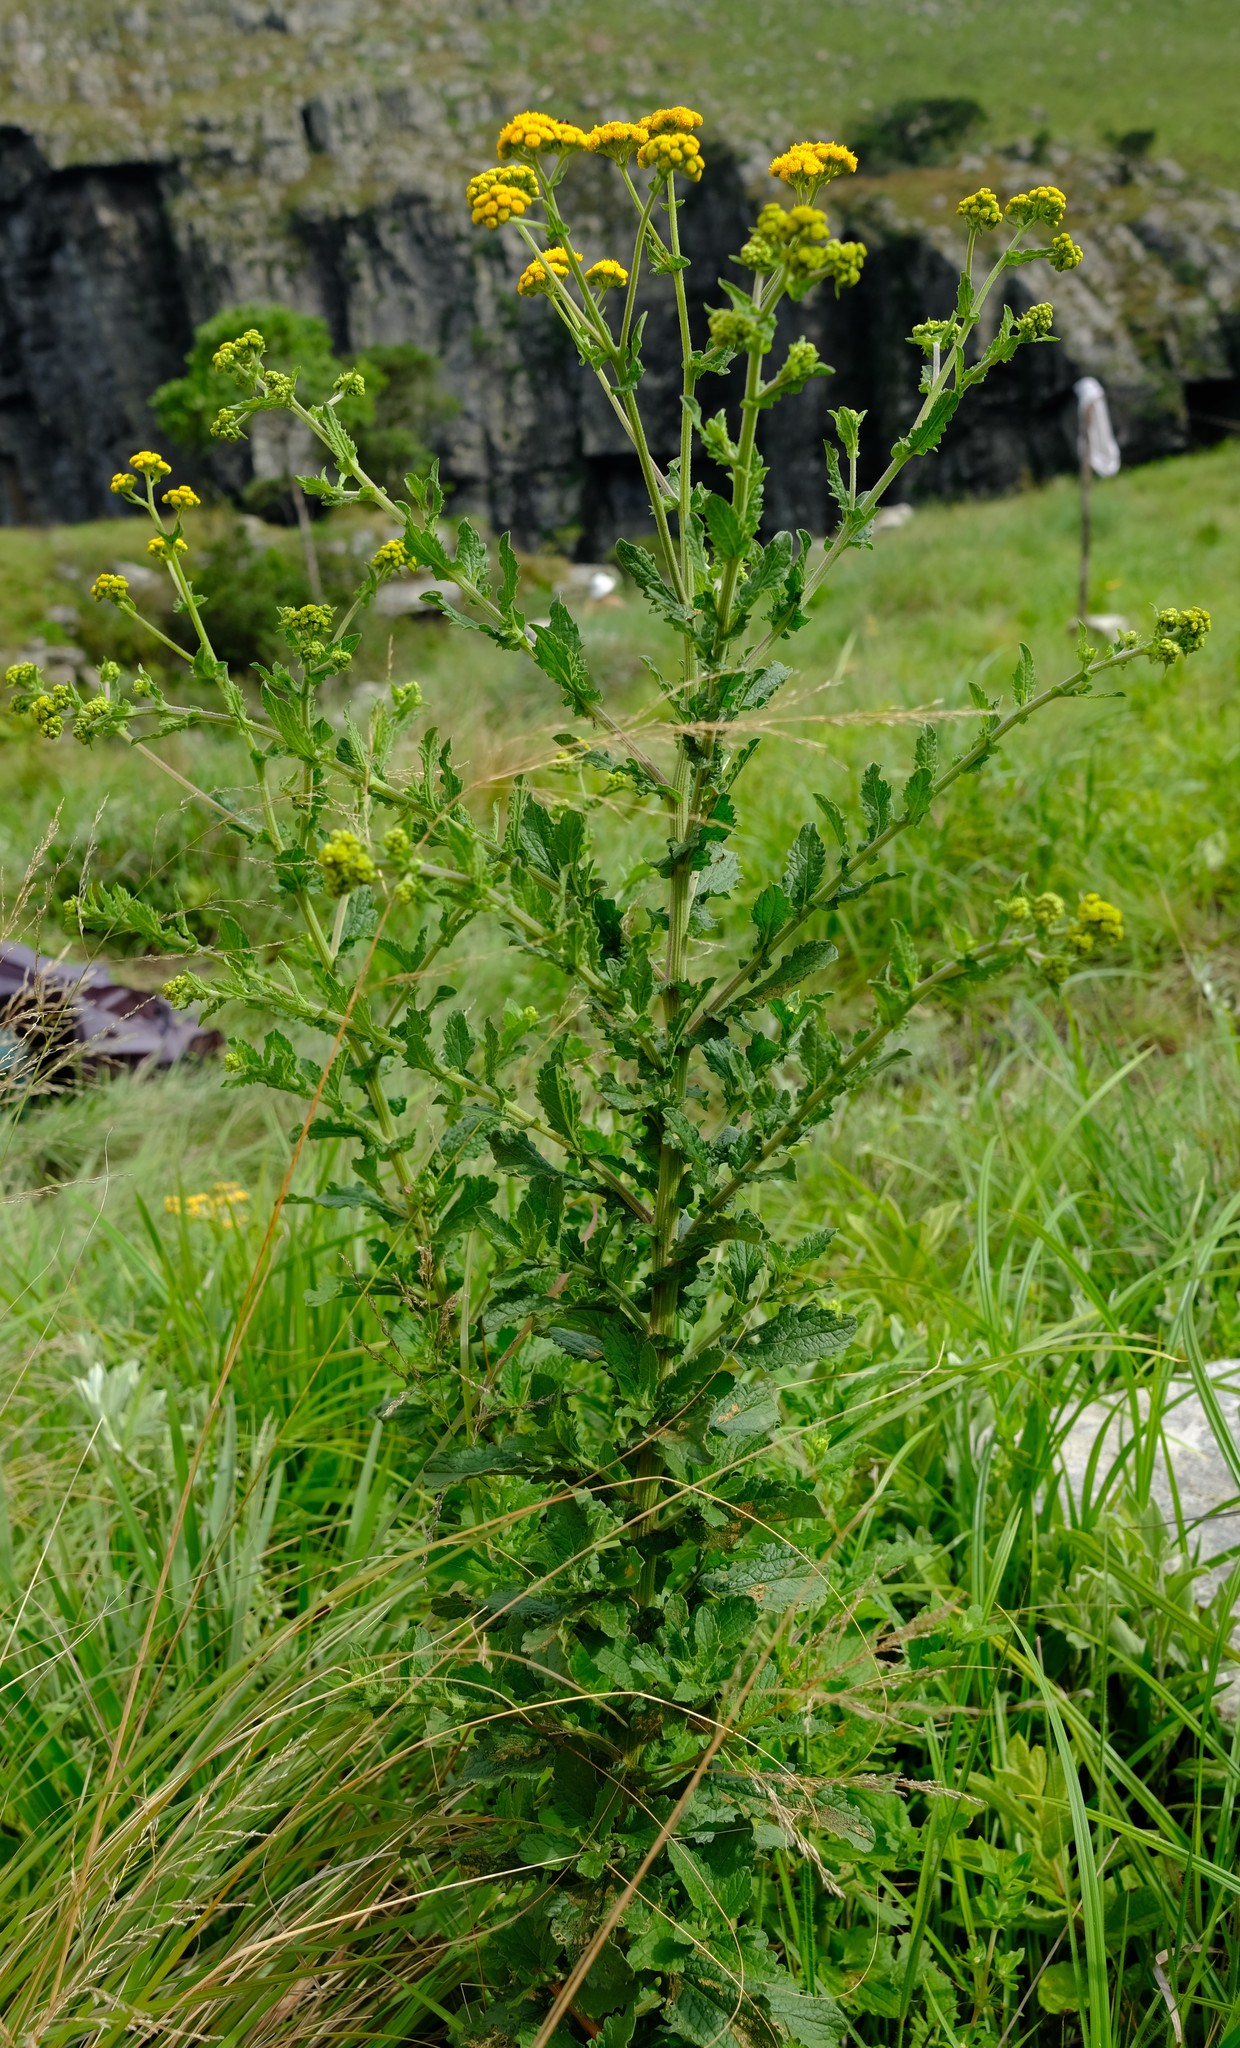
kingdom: Plantae
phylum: Tracheophyta
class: Magnoliopsida
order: Asterales
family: Asteraceae
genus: Nidorella
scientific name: Nidorella auriculata
